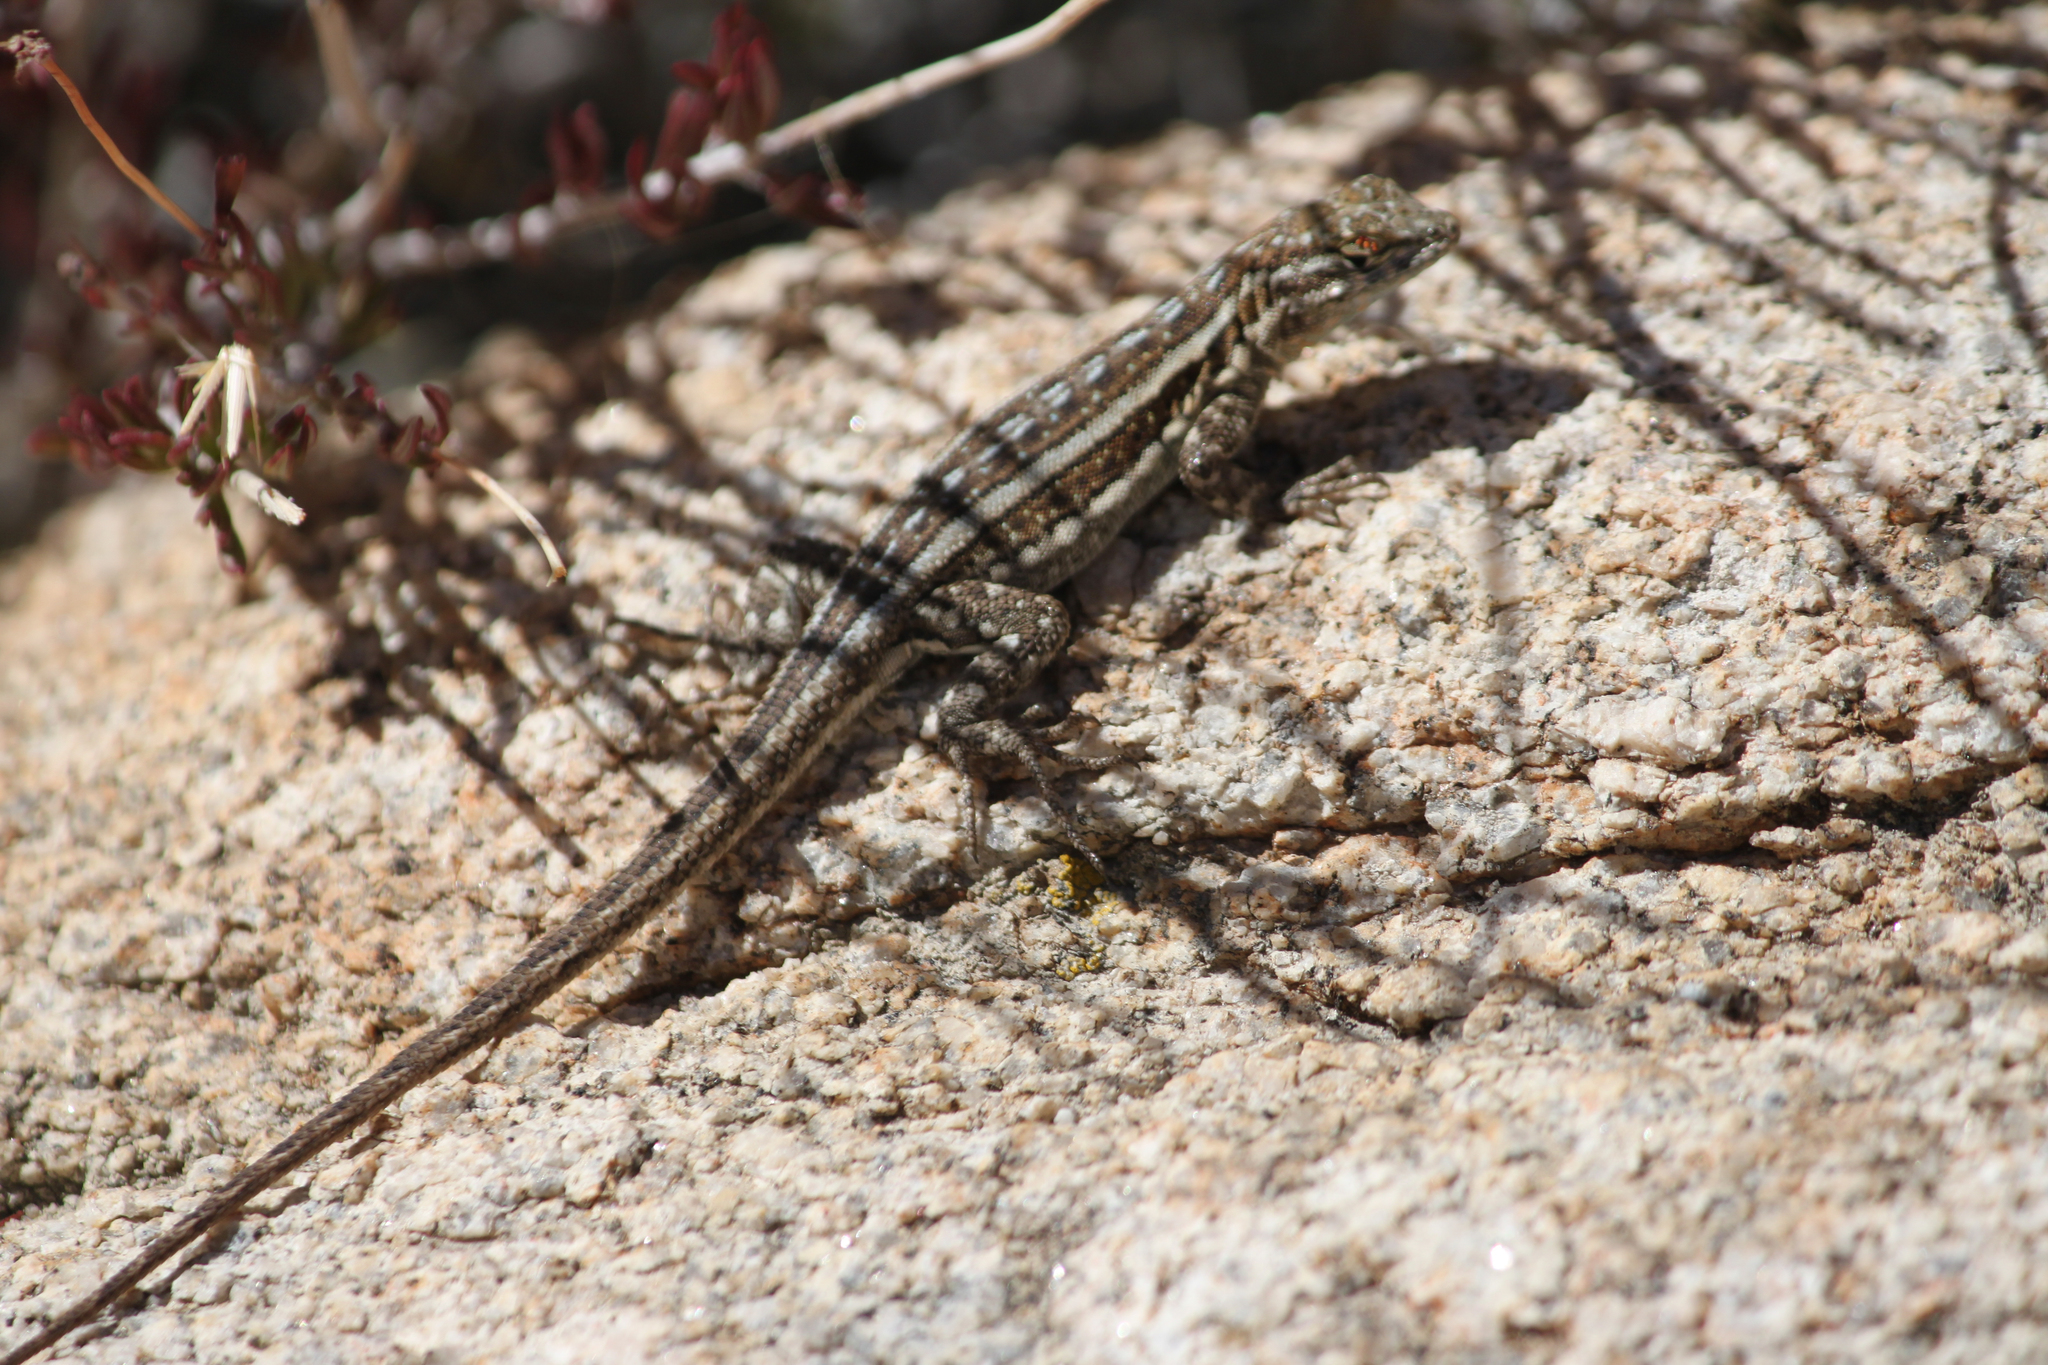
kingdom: Animalia
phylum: Chordata
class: Squamata
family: Phrynosomatidae
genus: Uta
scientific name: Uta stansburiana
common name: Side-blotched lizard
